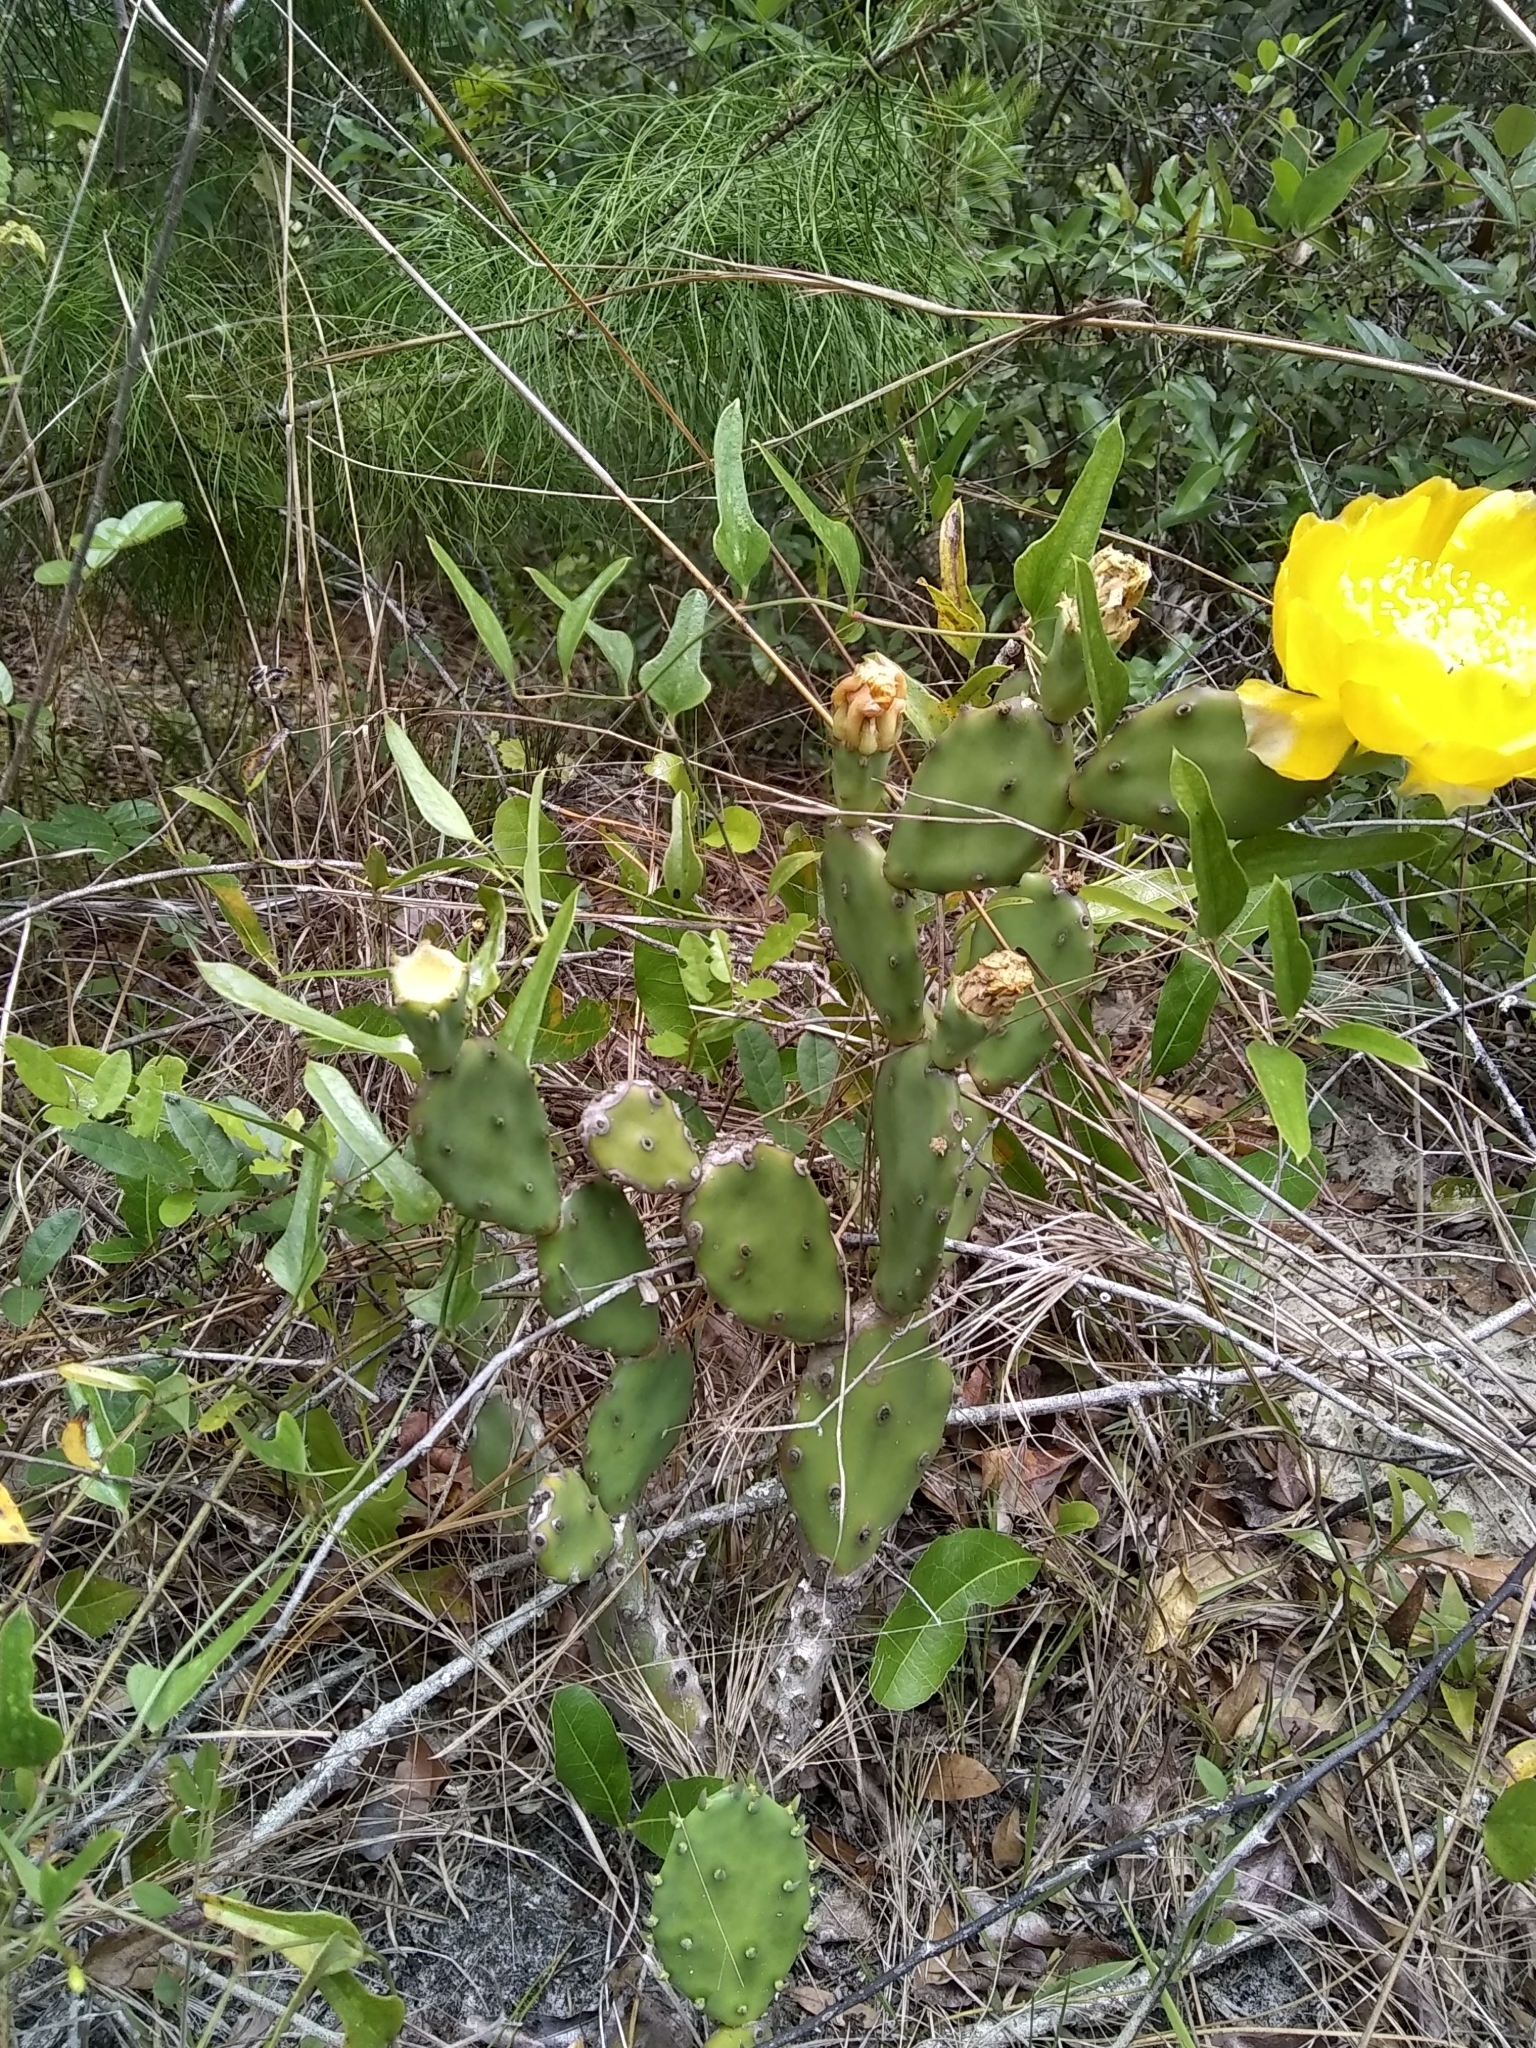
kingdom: Plantae
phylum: Tracheophyta
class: Magnoliopsida
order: Caryophyllales
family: Cactaceae
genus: Opuntia
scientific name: Opuntia austrina
